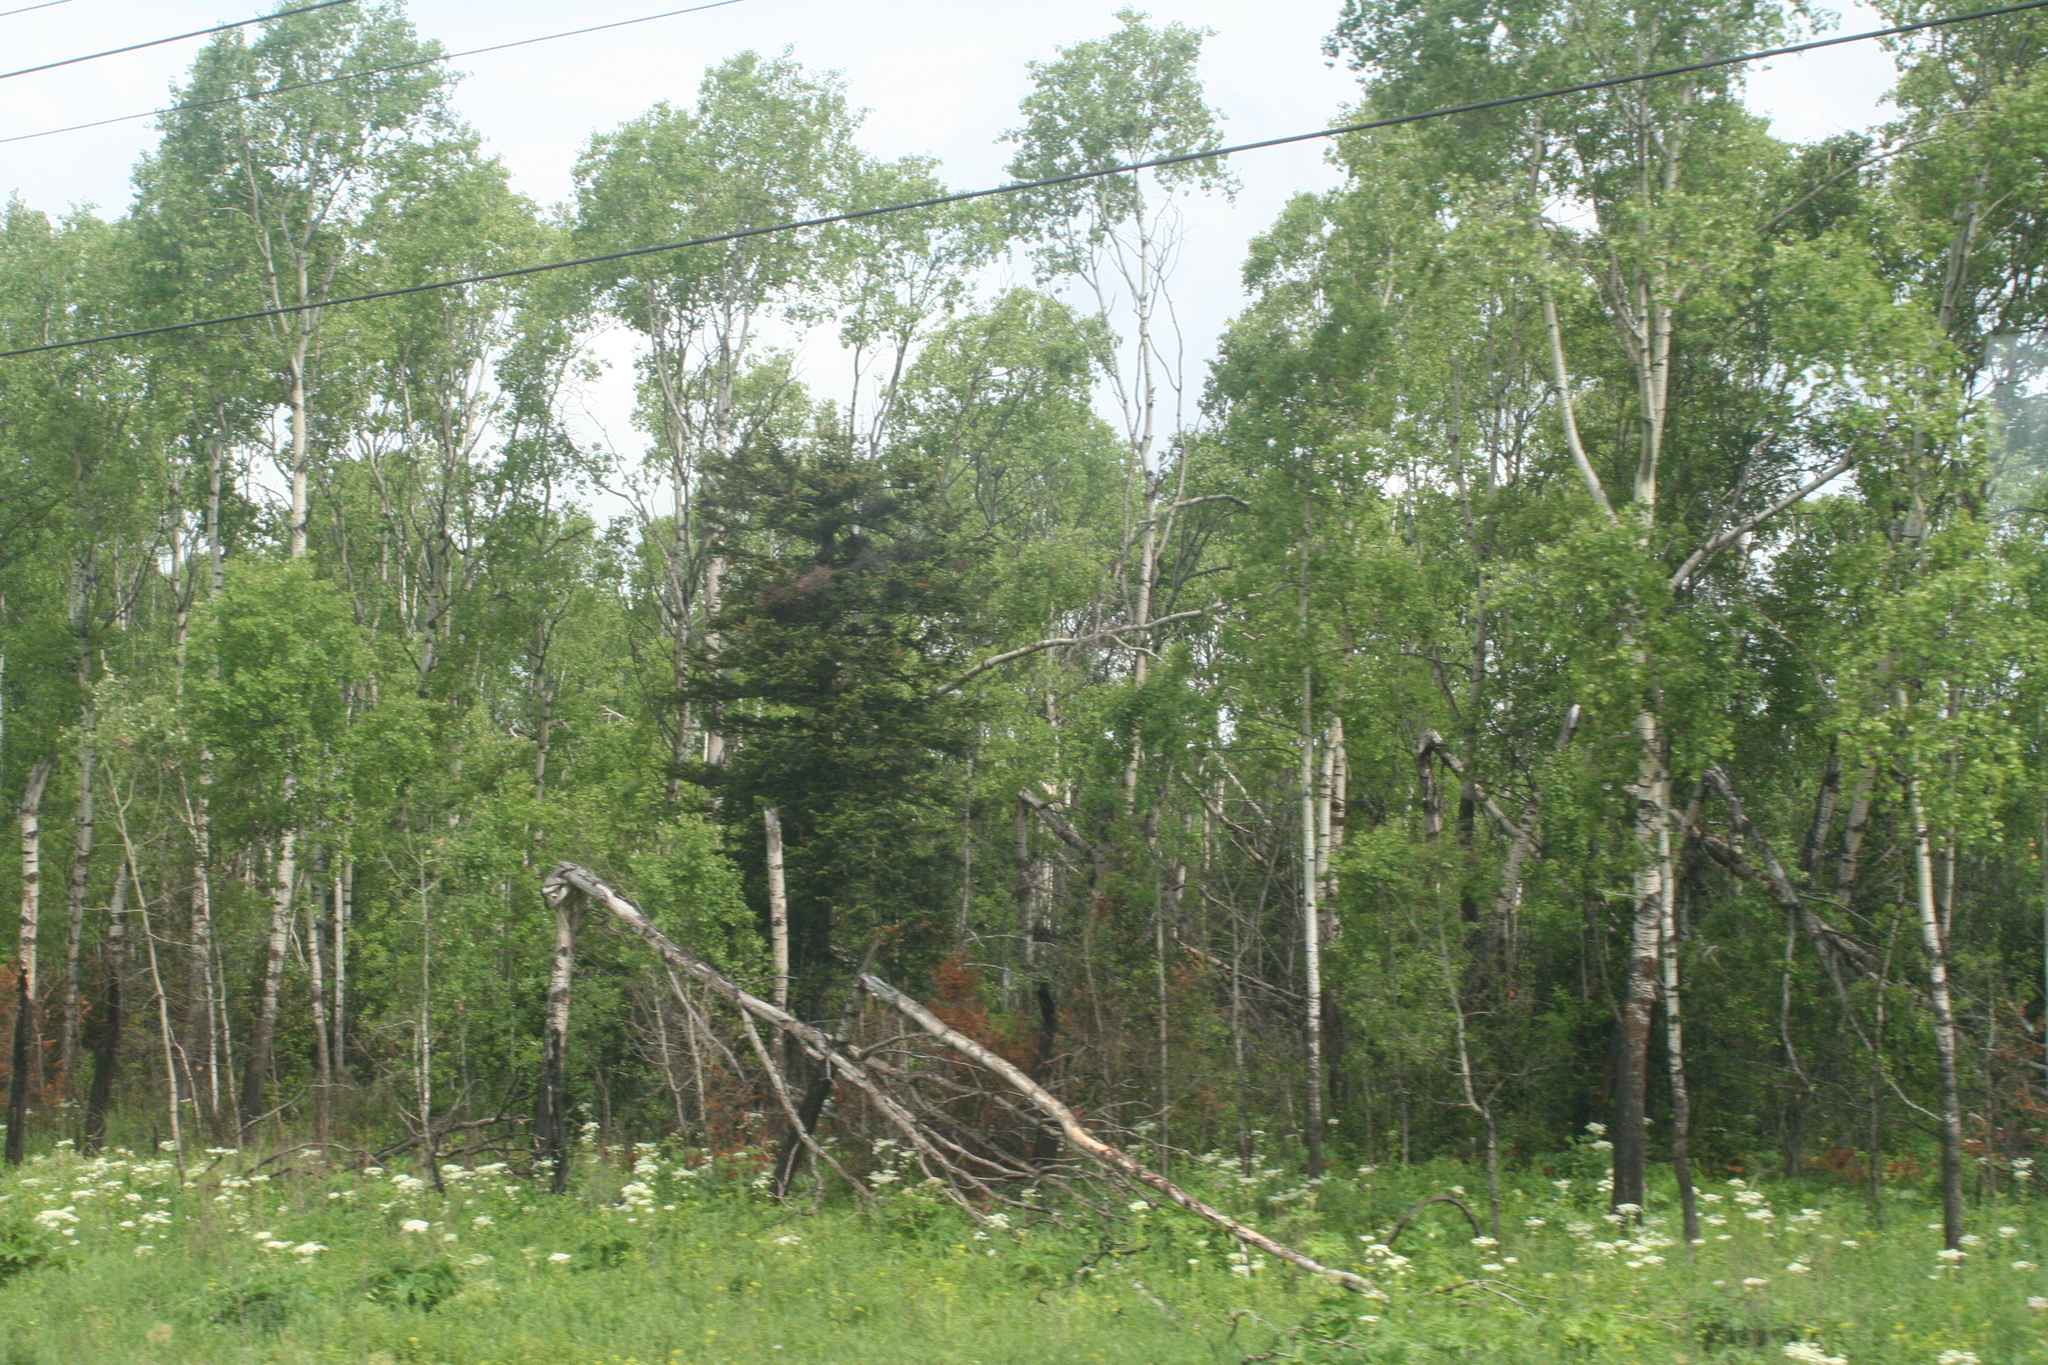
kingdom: Plantae
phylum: Tracheophyta
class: Magnoliopsida
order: Malpighiales
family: Salicaceae
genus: Populus
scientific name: Populus tremula
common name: European aspen
